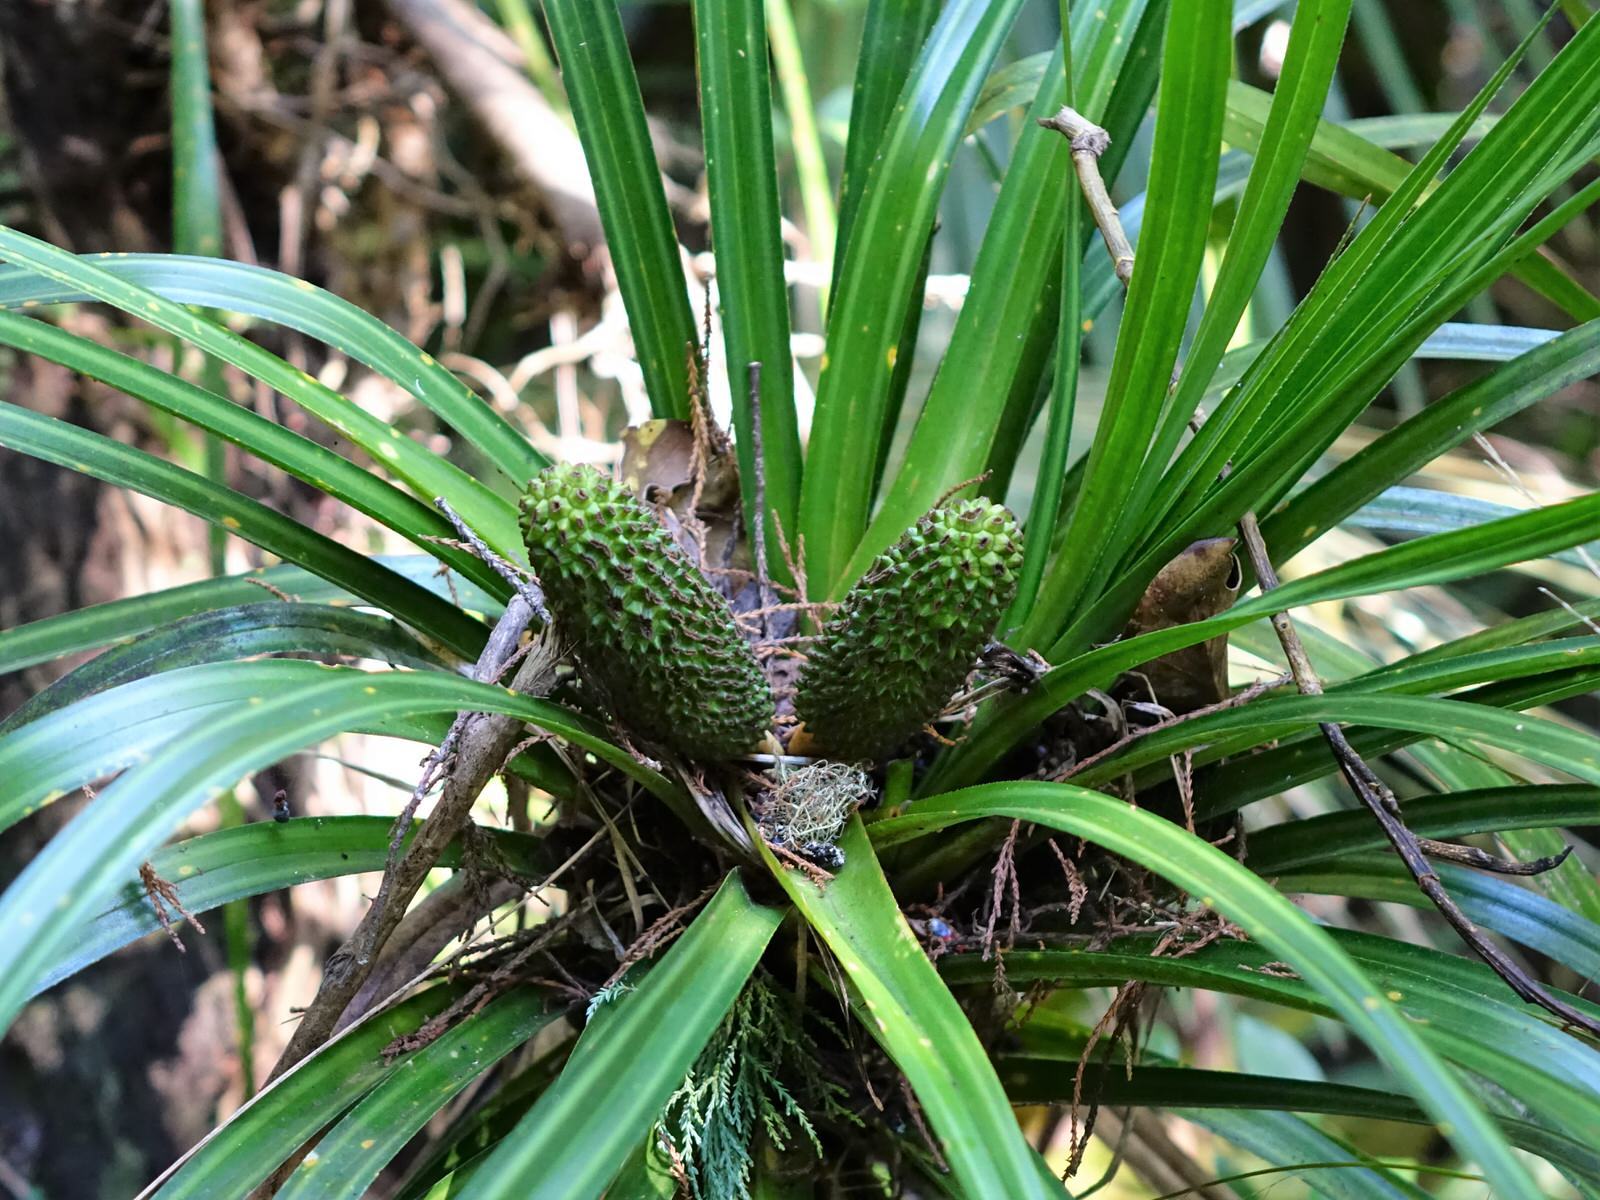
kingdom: Plantae
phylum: Tracheophyta
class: Liliopsida
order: Pandanales
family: Pandanaceae
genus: Freycinetia
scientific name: Freycinetia banksii
